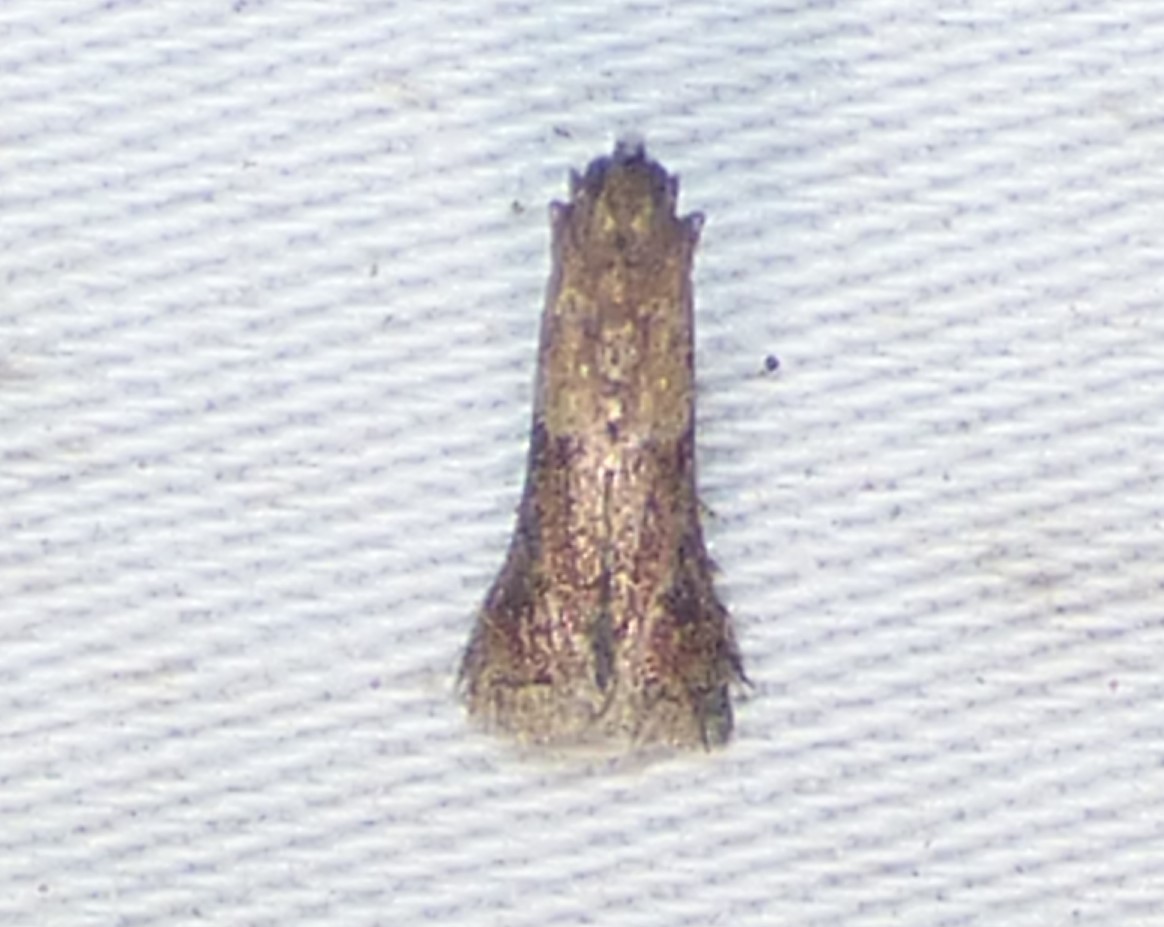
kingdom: Animalia
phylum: Arthropoda
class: Insecta
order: Lepidoptera
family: Pyralidae
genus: Eulogia
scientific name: Eulogia ochrifrontella
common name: Broad-banded eulogia moth
